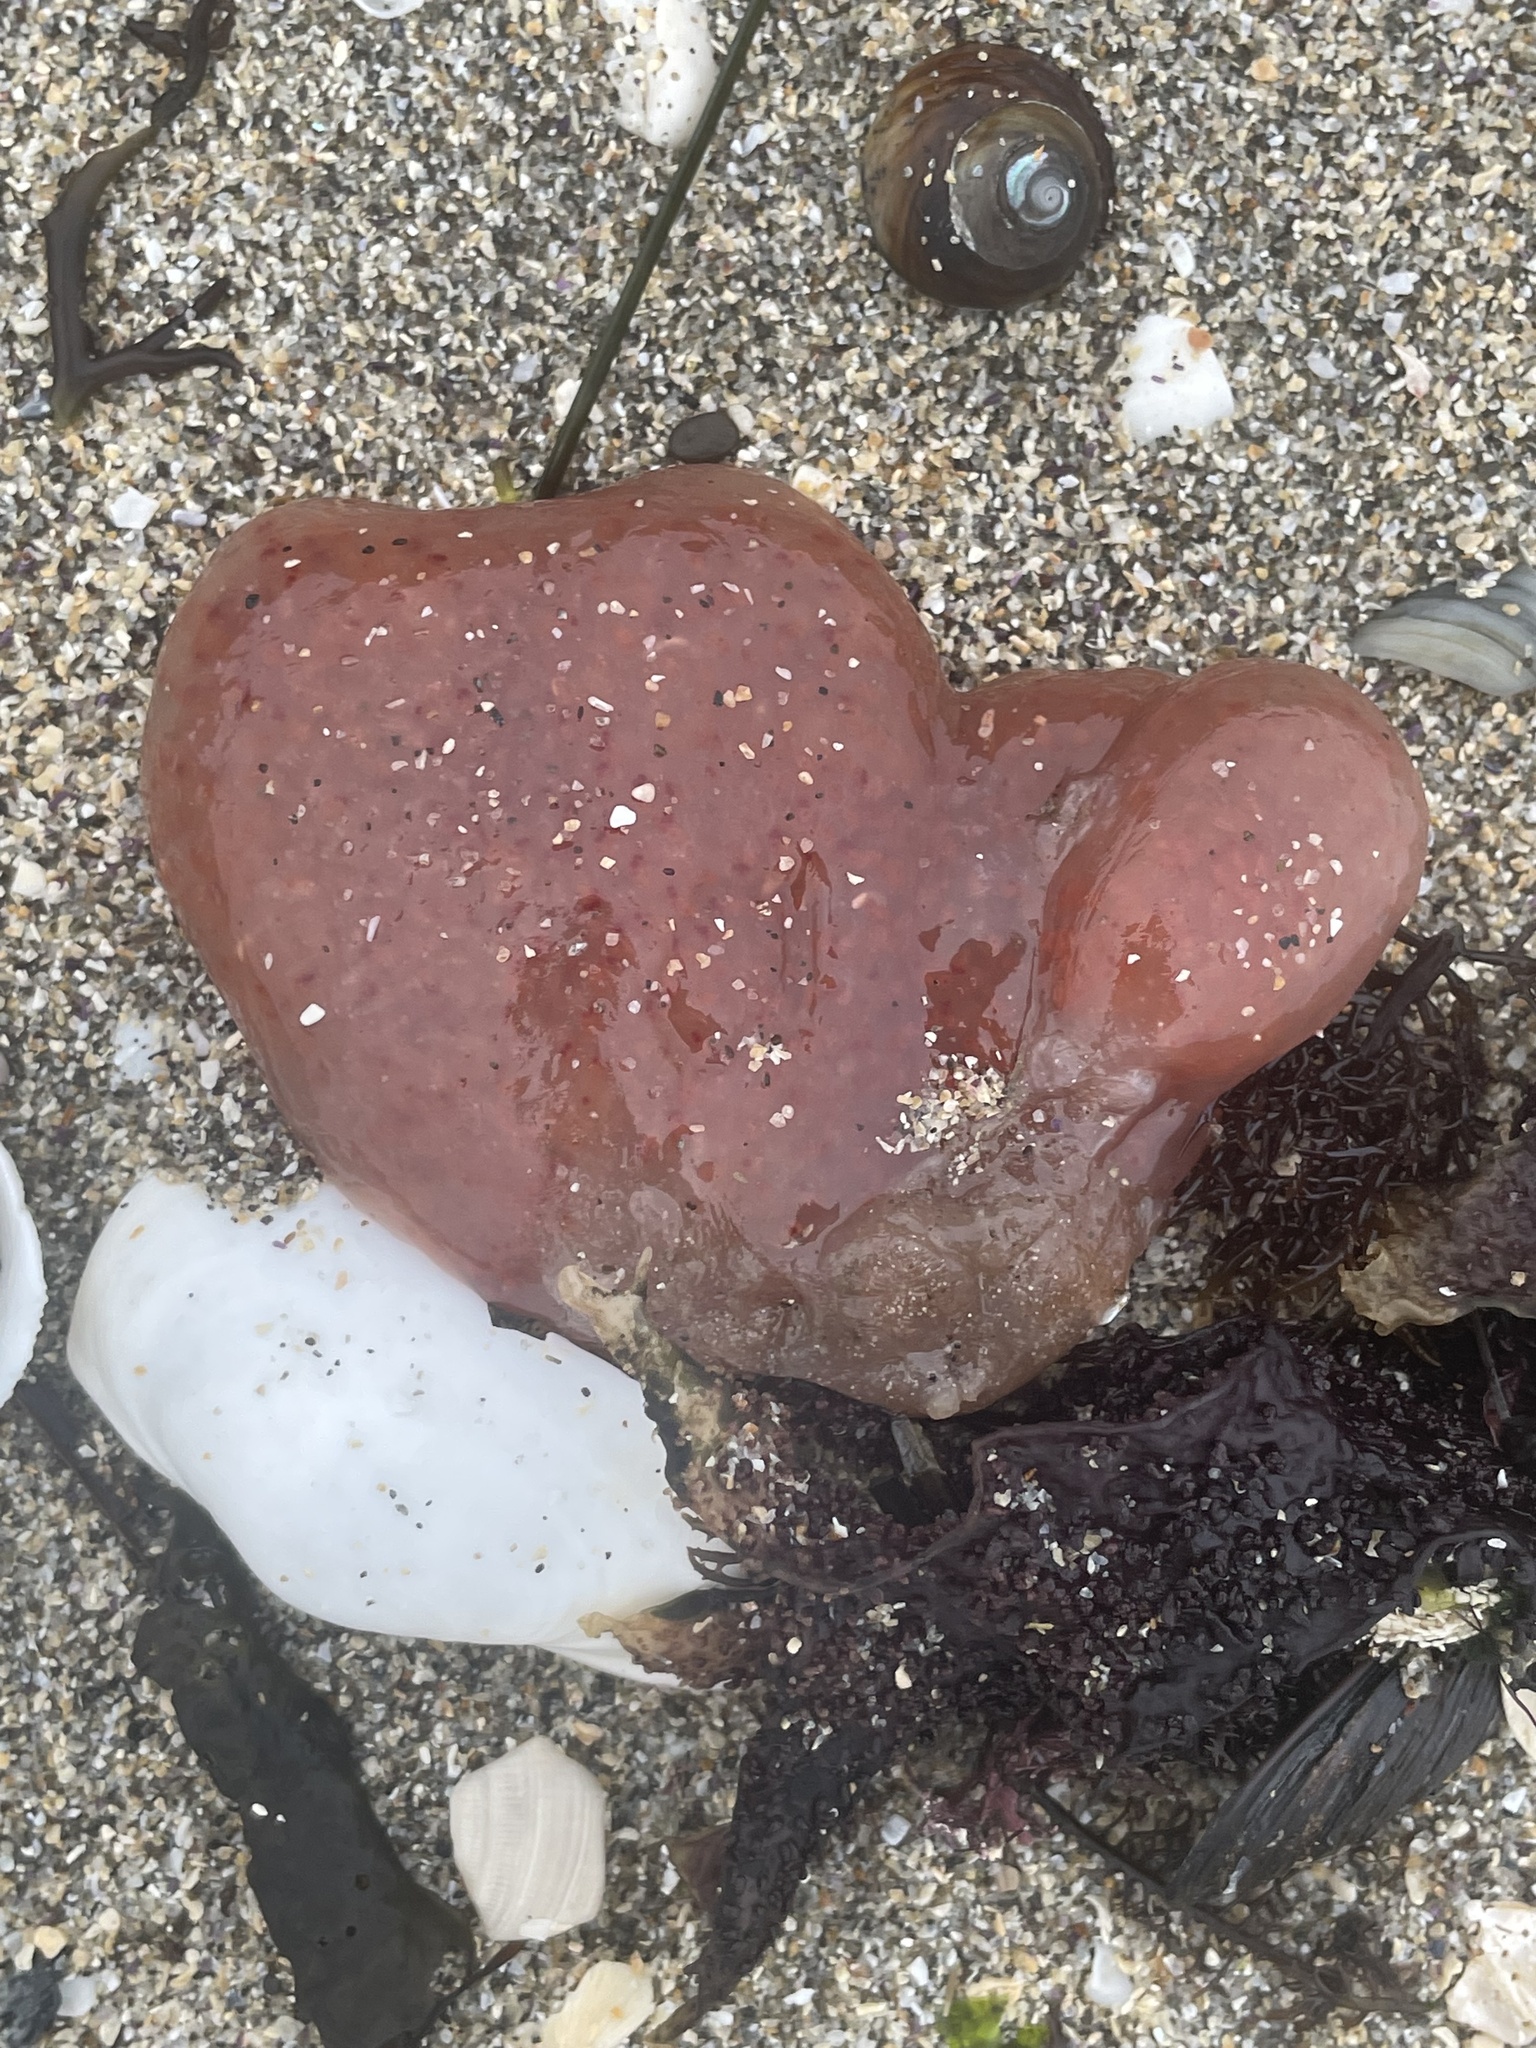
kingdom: Animalia
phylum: Chordata
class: Ascidiacea
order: Aplousobranchia
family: Polyclinidae
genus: Aplidium
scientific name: Aplidium californicum
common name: Sea pork
